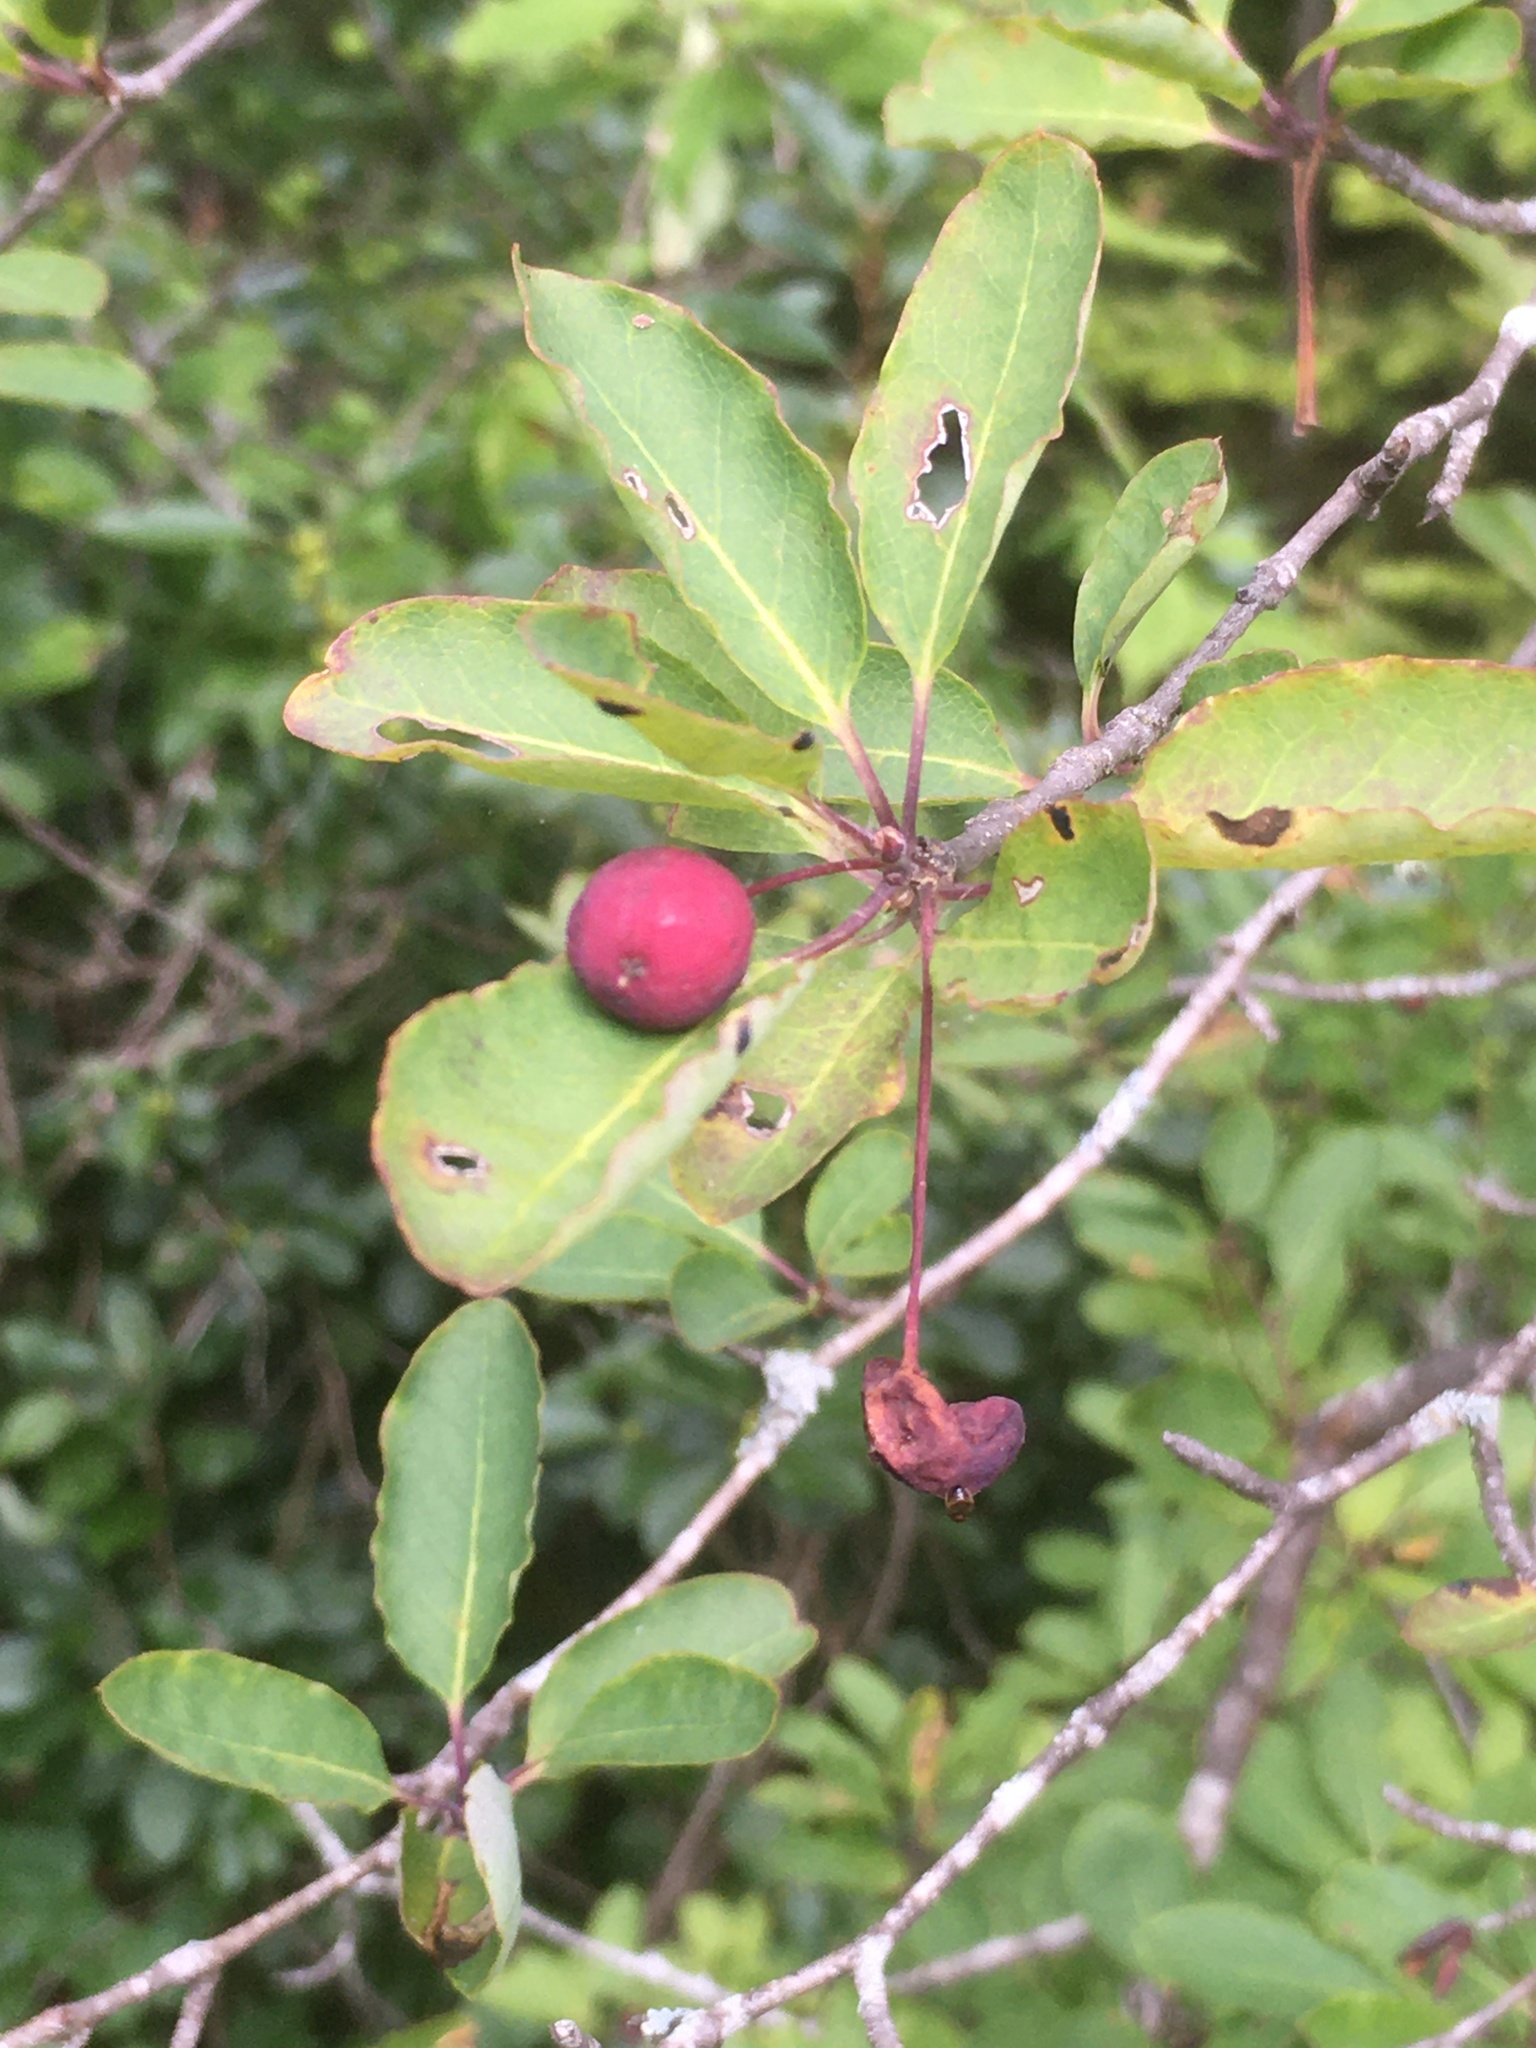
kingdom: Plantae
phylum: Tracheophyta
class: Magnoliopsida
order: Aquifoliales
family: Aquifoliaceae
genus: Ilex
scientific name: Ilex mucronata
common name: Catberry
